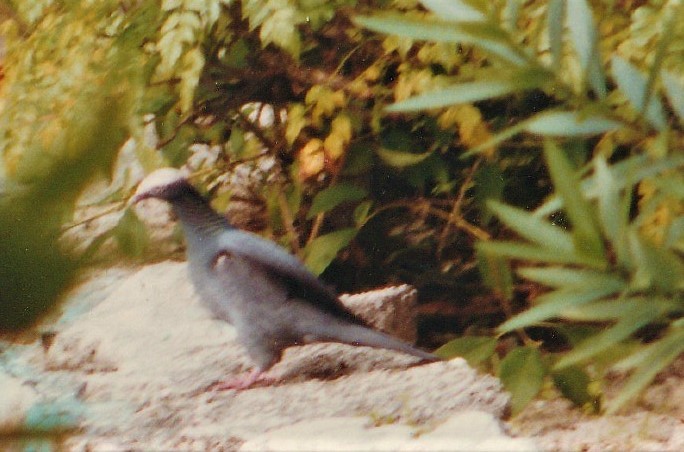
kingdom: Animalia
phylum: Chordata
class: Aves
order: Columbiformes
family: Columbidae
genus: Patagioenas
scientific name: Patagioenas leucocephala
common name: White-crowned pigeon
